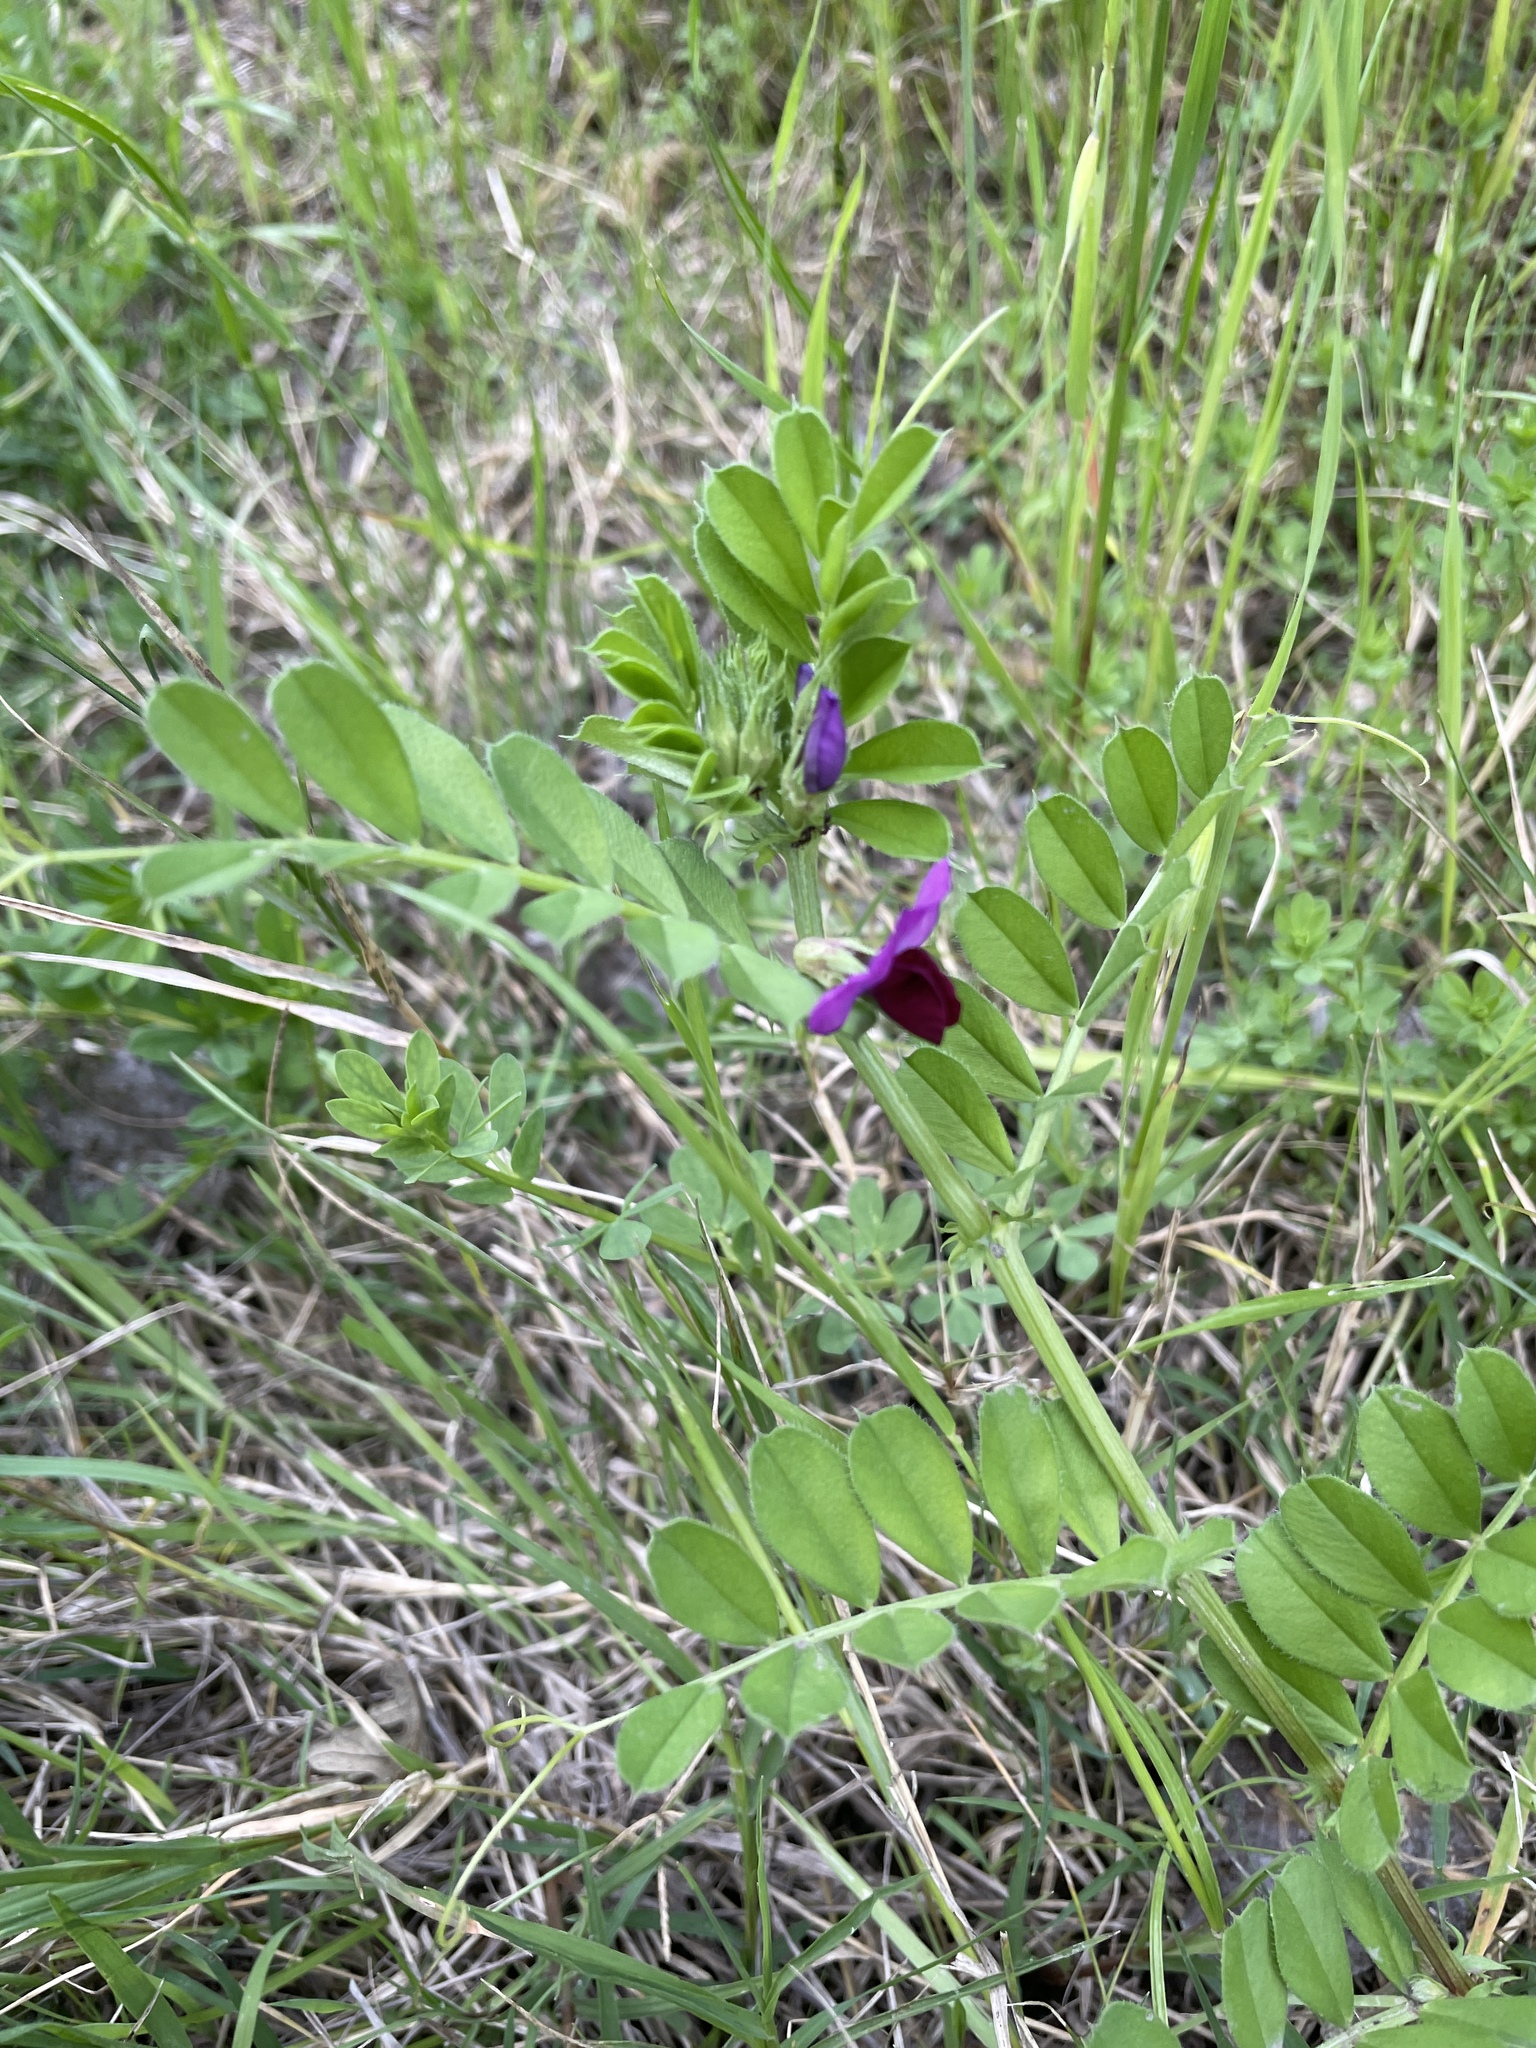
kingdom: Plantae
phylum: Tracheophyta
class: Magnoliopsida
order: Fabales
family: Fabaceae
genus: Vicia
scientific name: Vicia sativa
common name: Garden vetch
